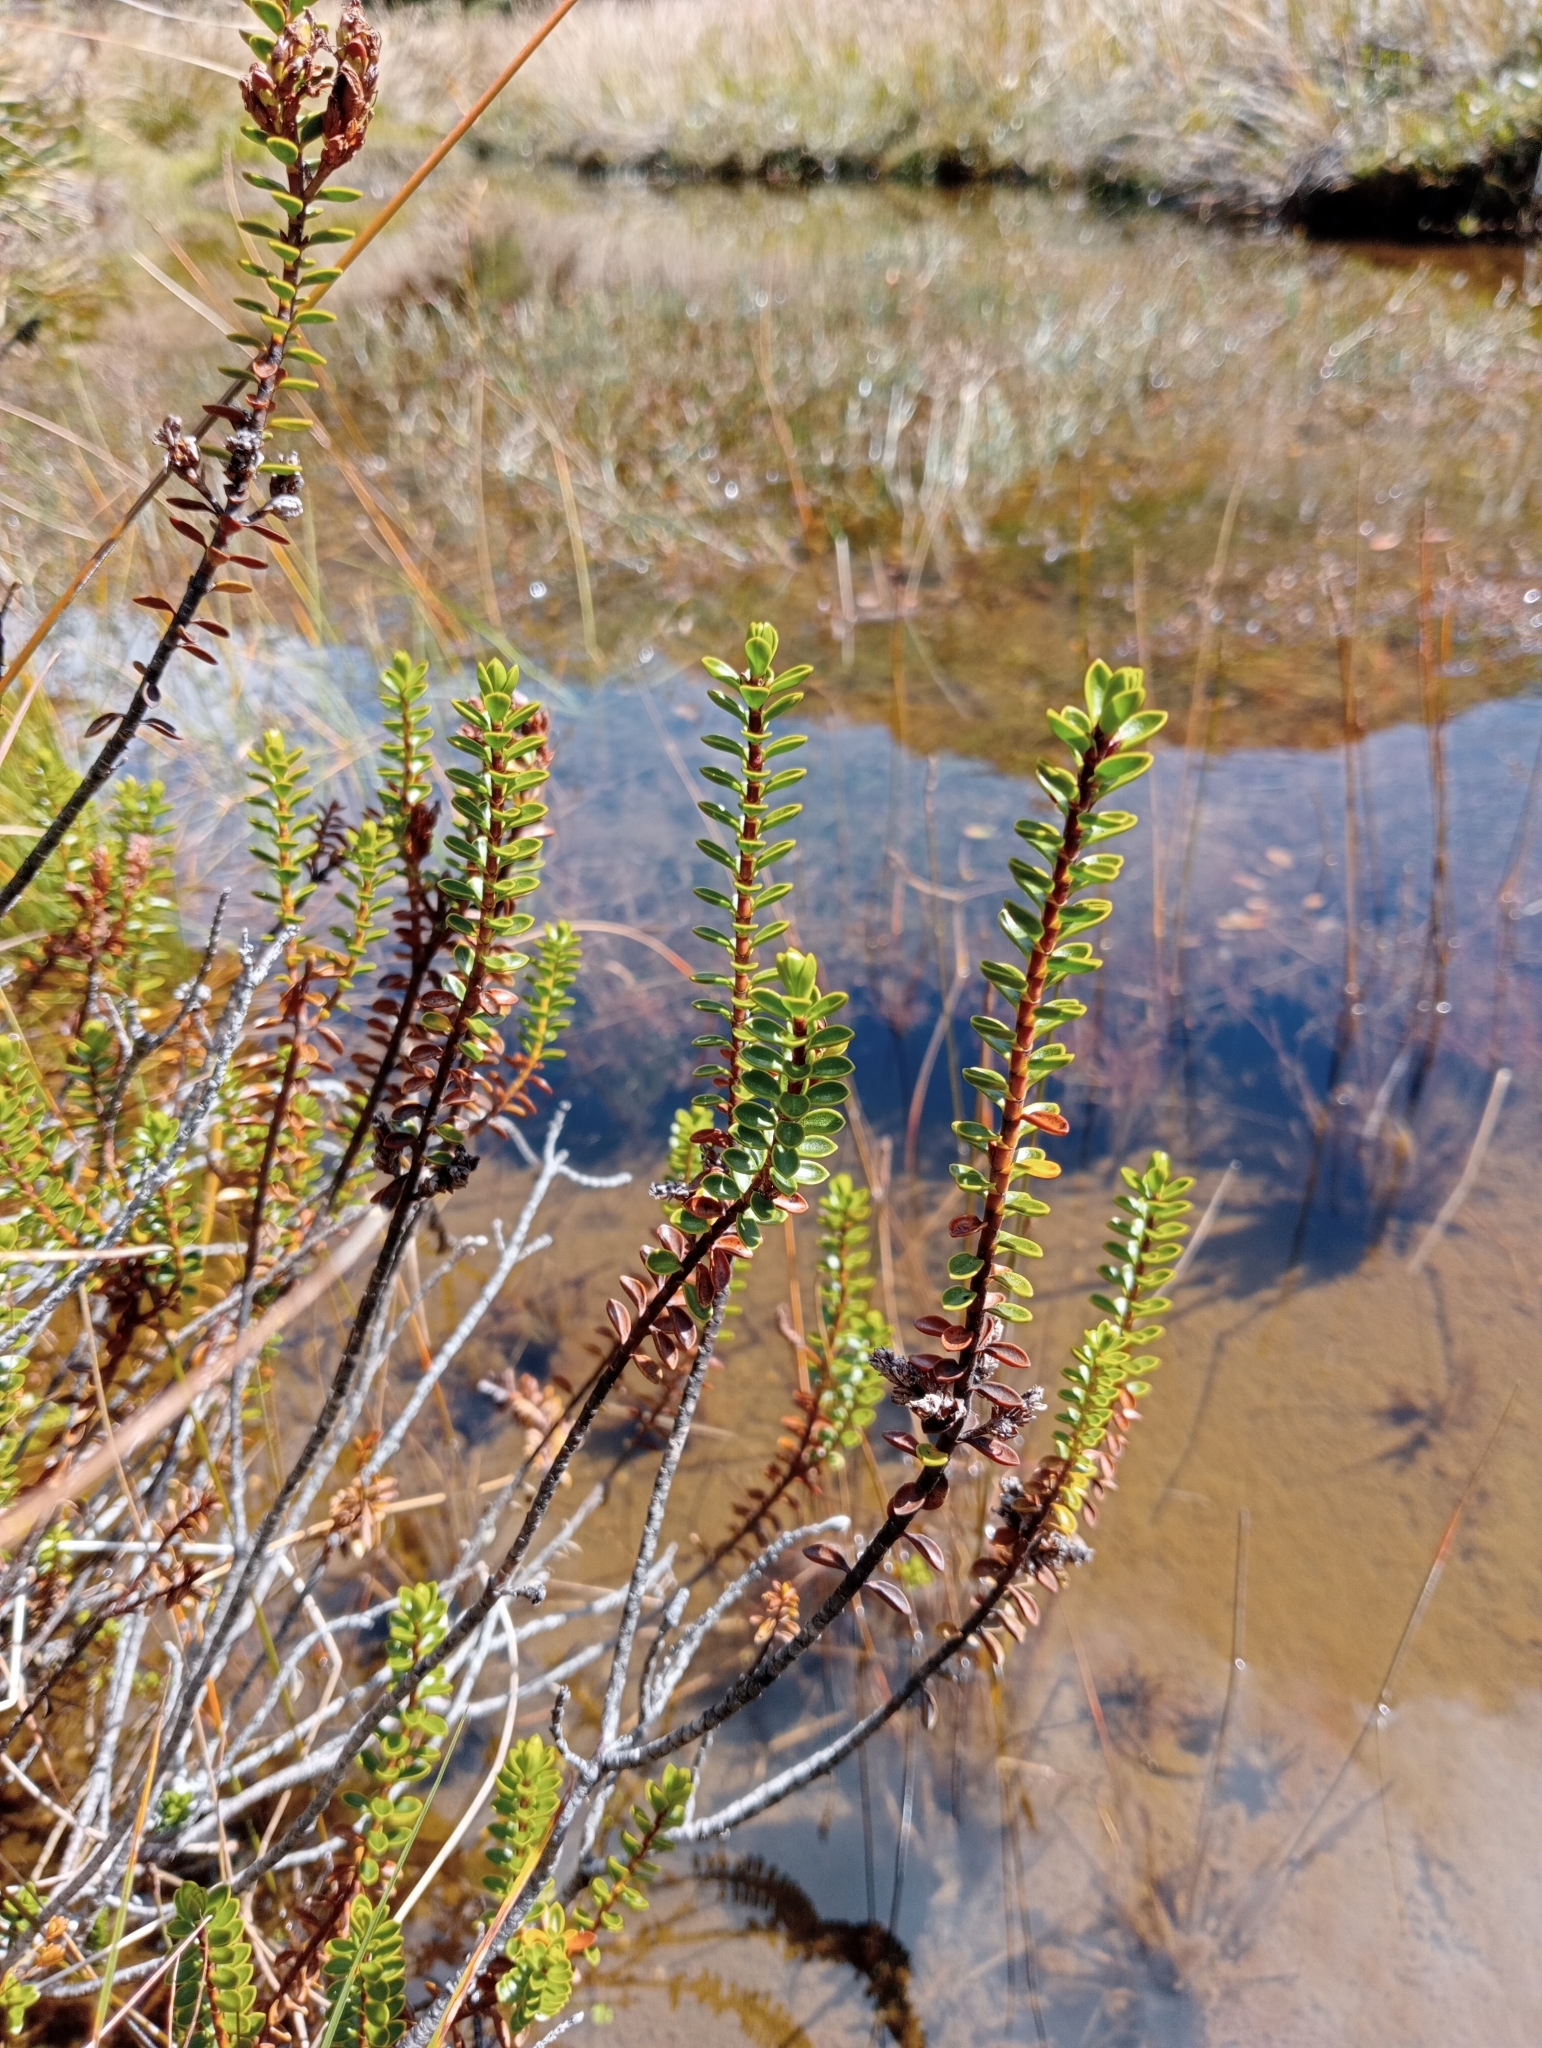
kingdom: Plantae
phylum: Tracheophyta
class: Magnoliopsida
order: Lamiales
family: Plantaginaceae
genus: Veronica
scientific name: Veronica pauciramosa
